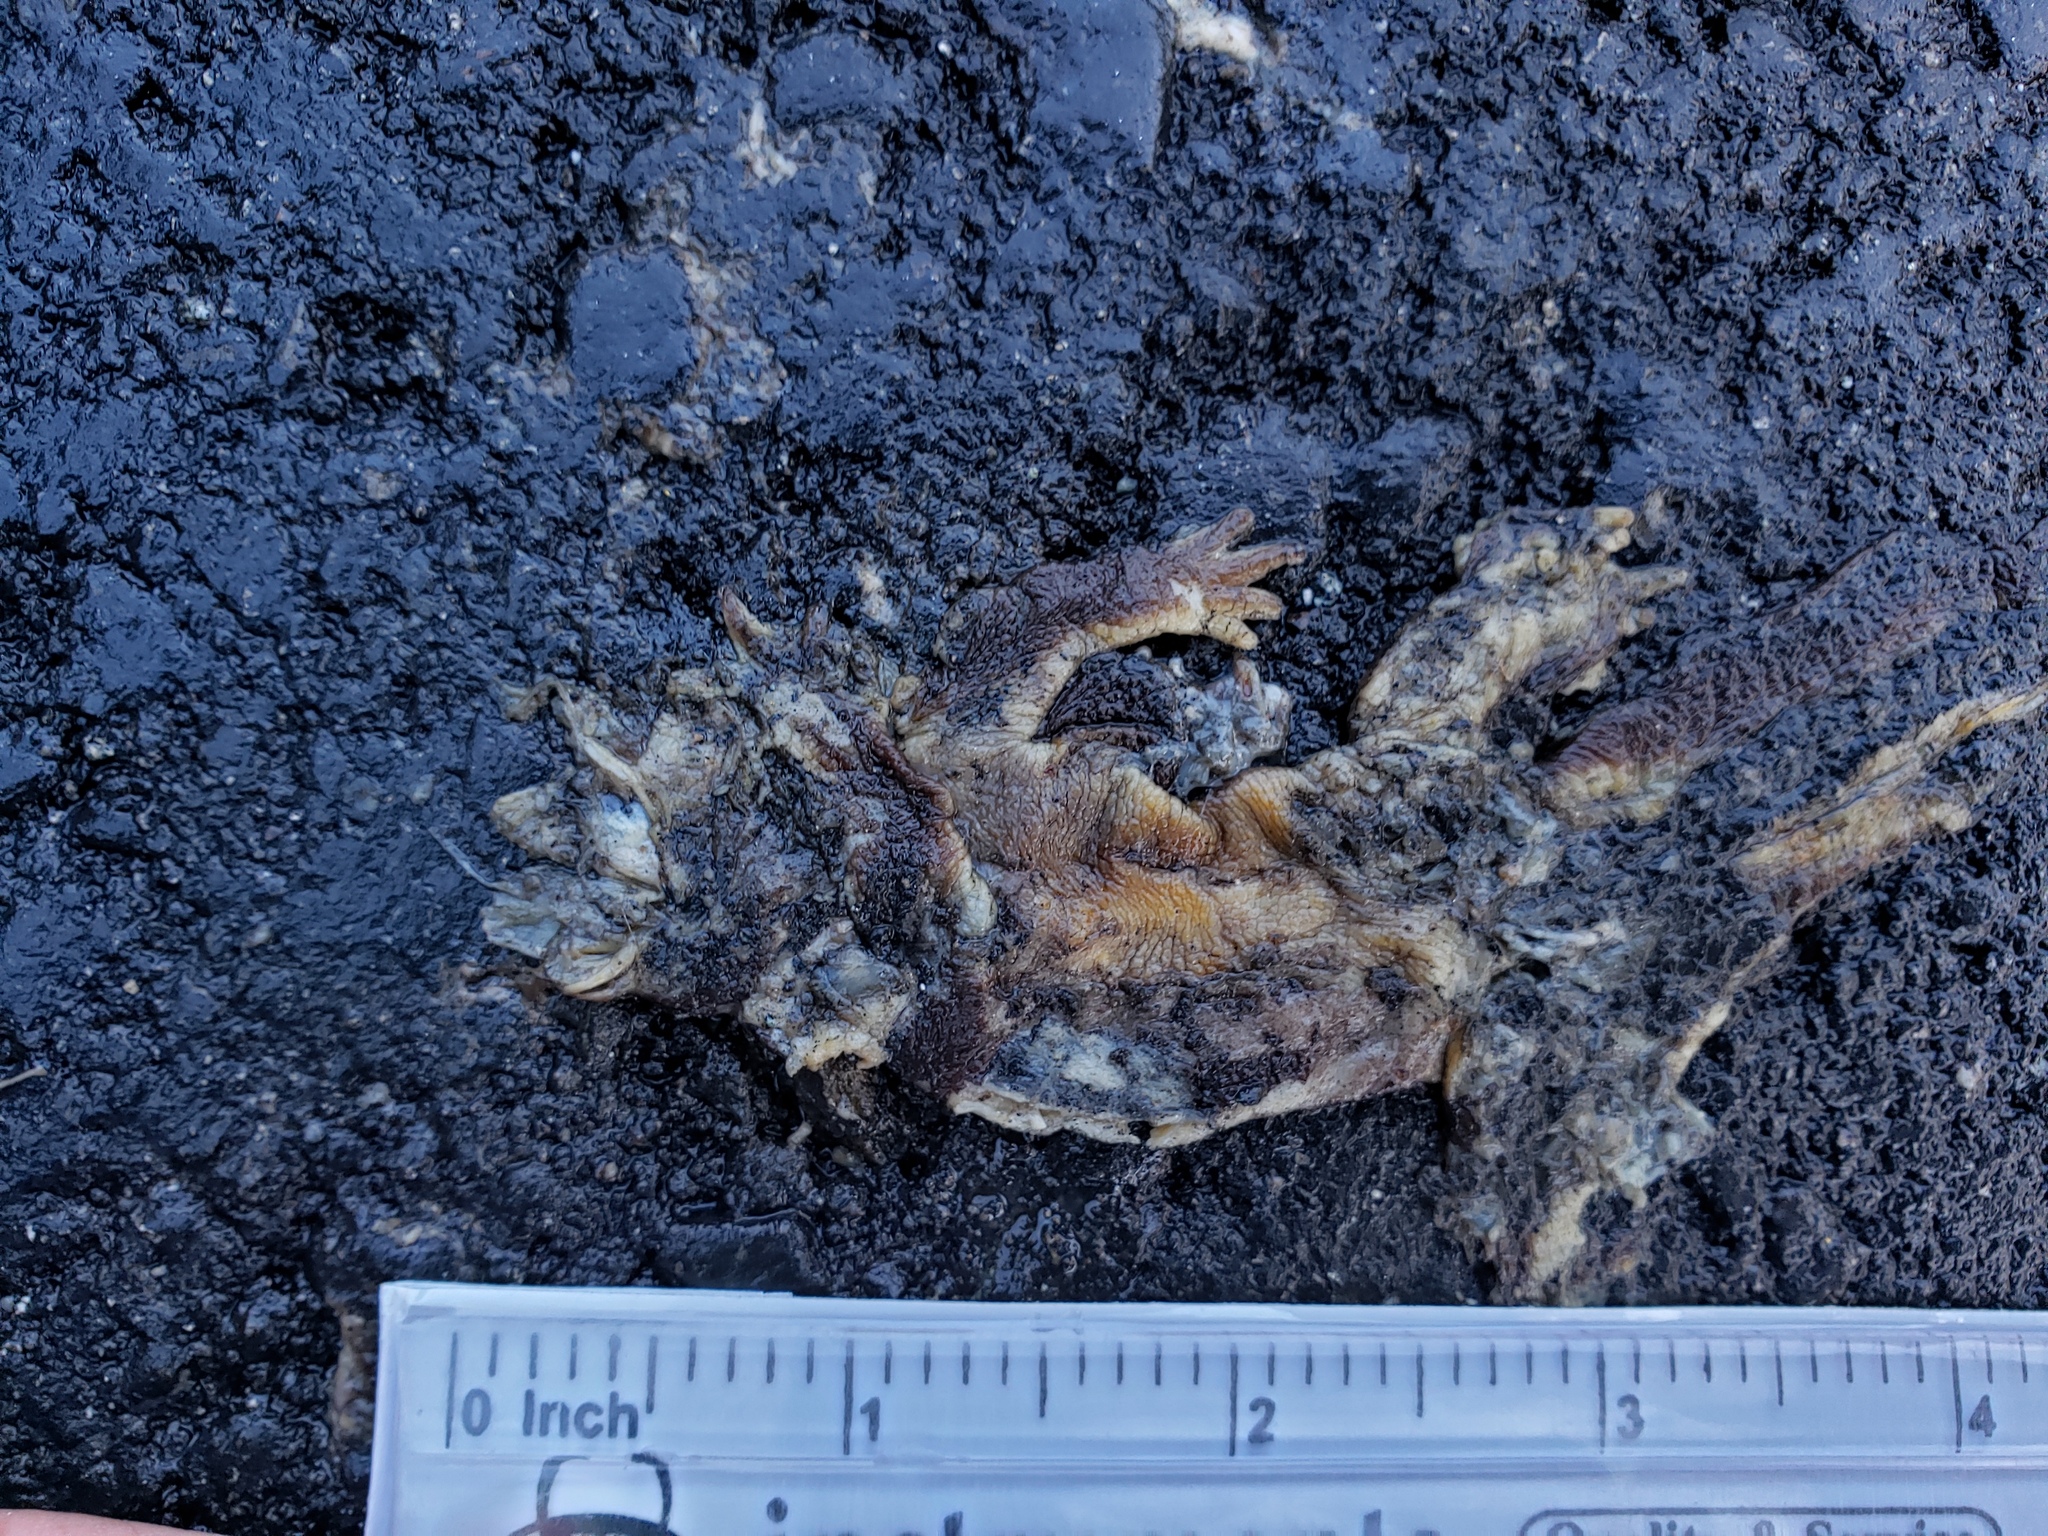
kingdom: Animalia
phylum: Chordata
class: Amphibia
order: Caudata
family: Salamandridae
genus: Taricha
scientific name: Taricha
